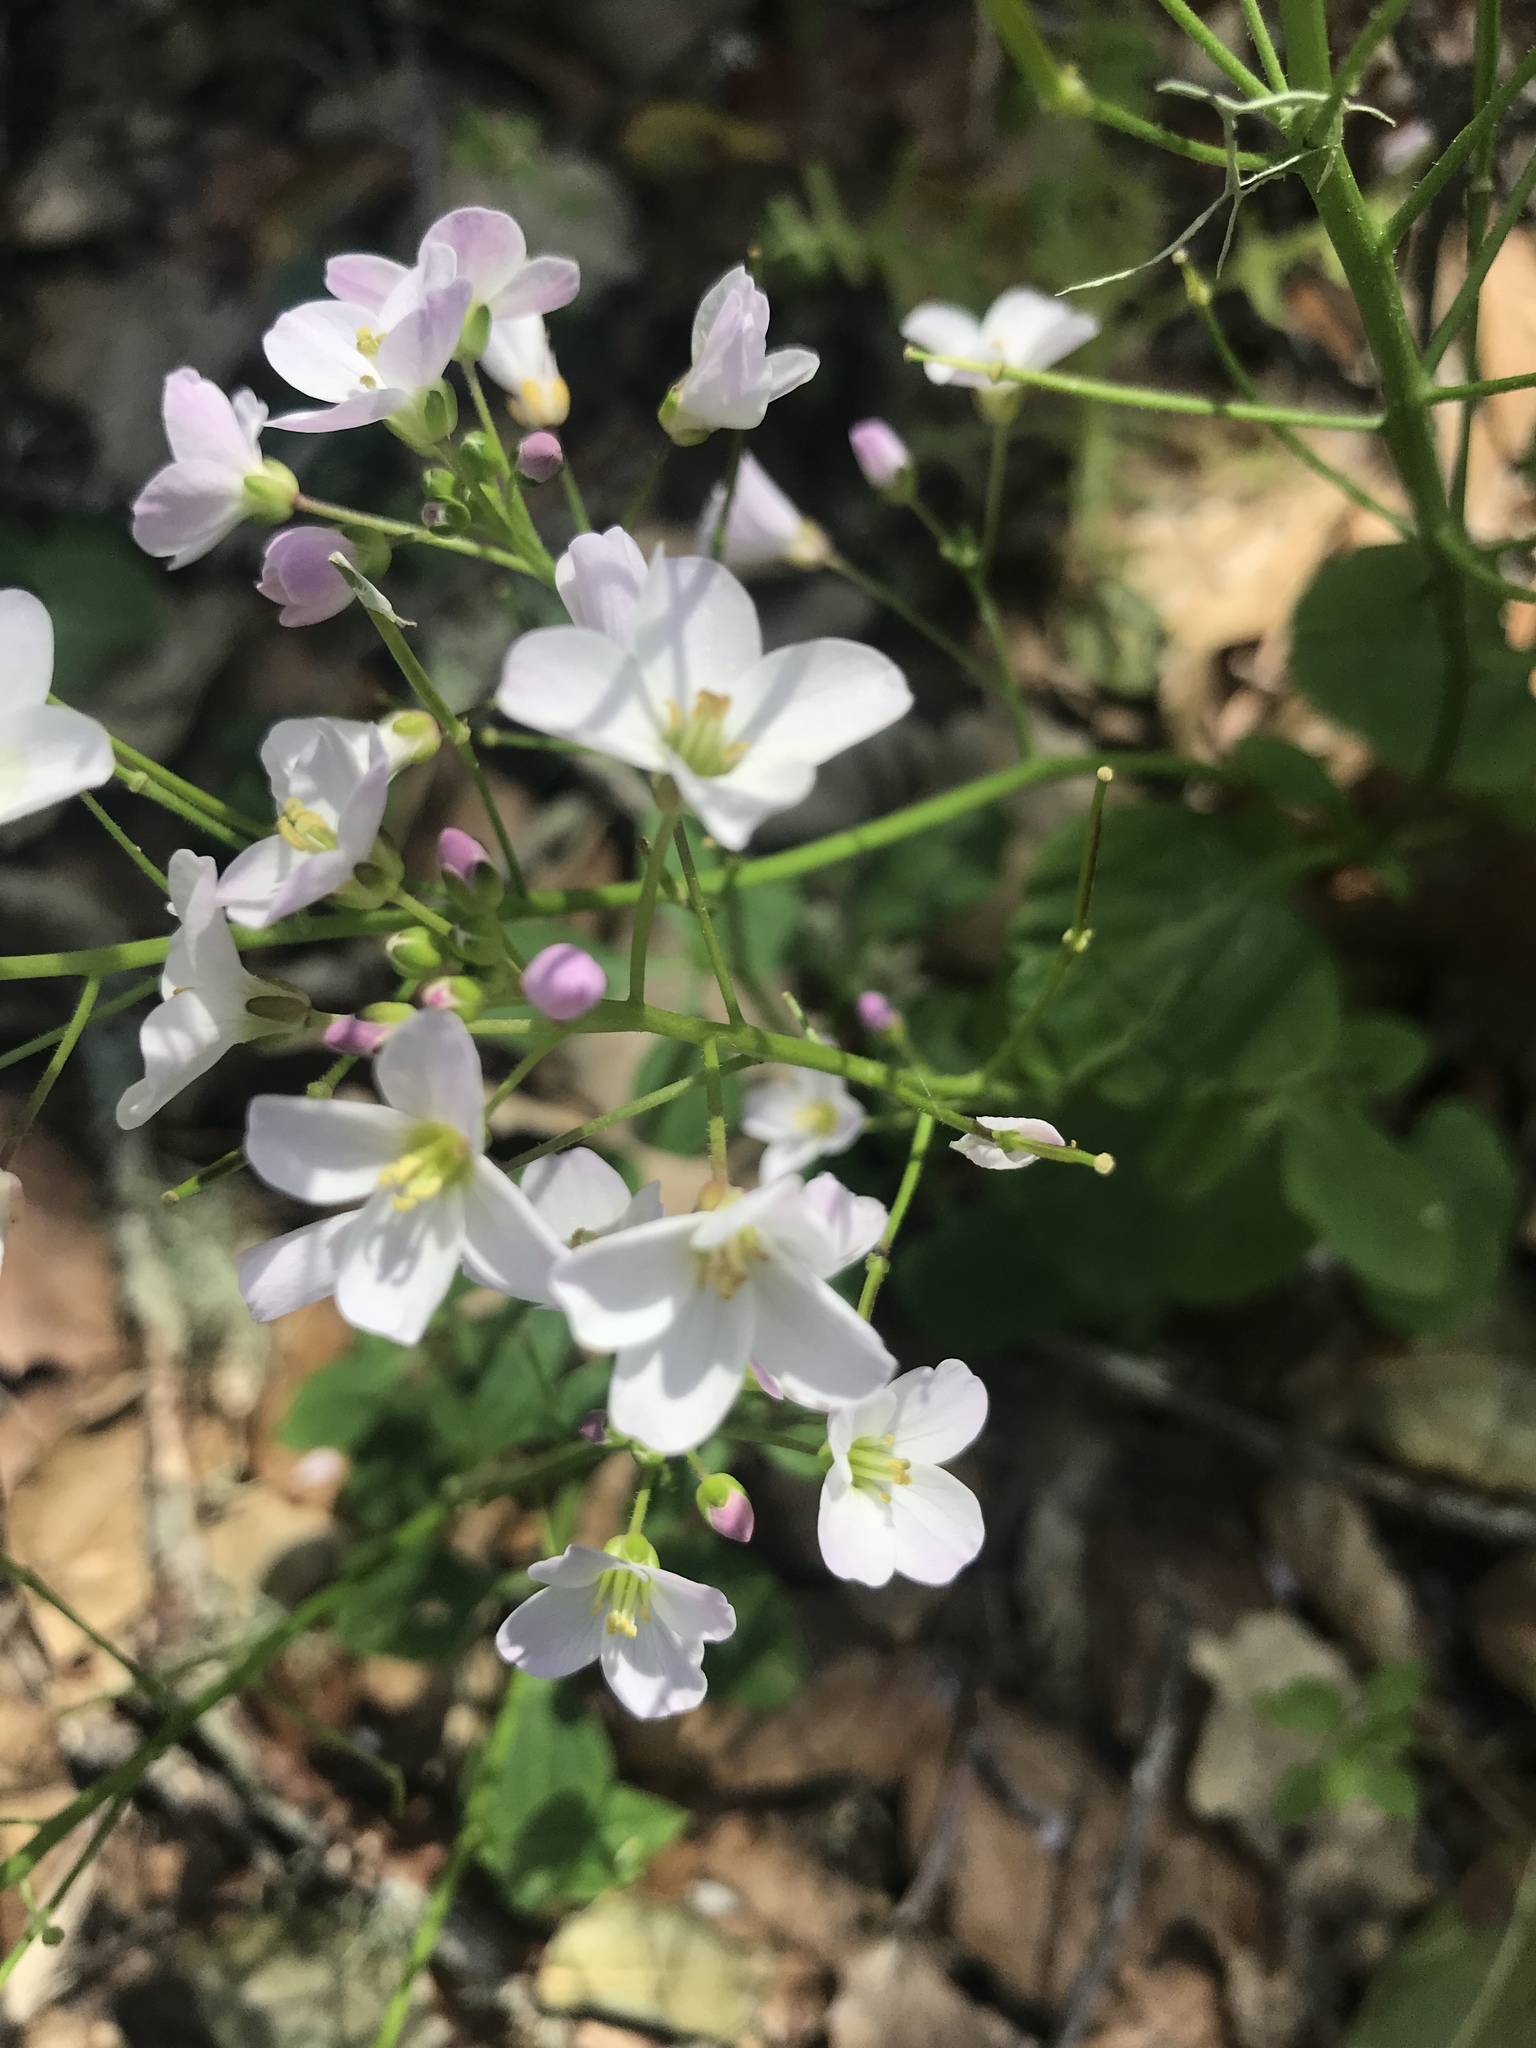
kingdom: Plantae
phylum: Tracheophyta
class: Magnoliopsida
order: Brassicales
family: Brassicaceae
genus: Cardamine
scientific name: Cardamine californica
